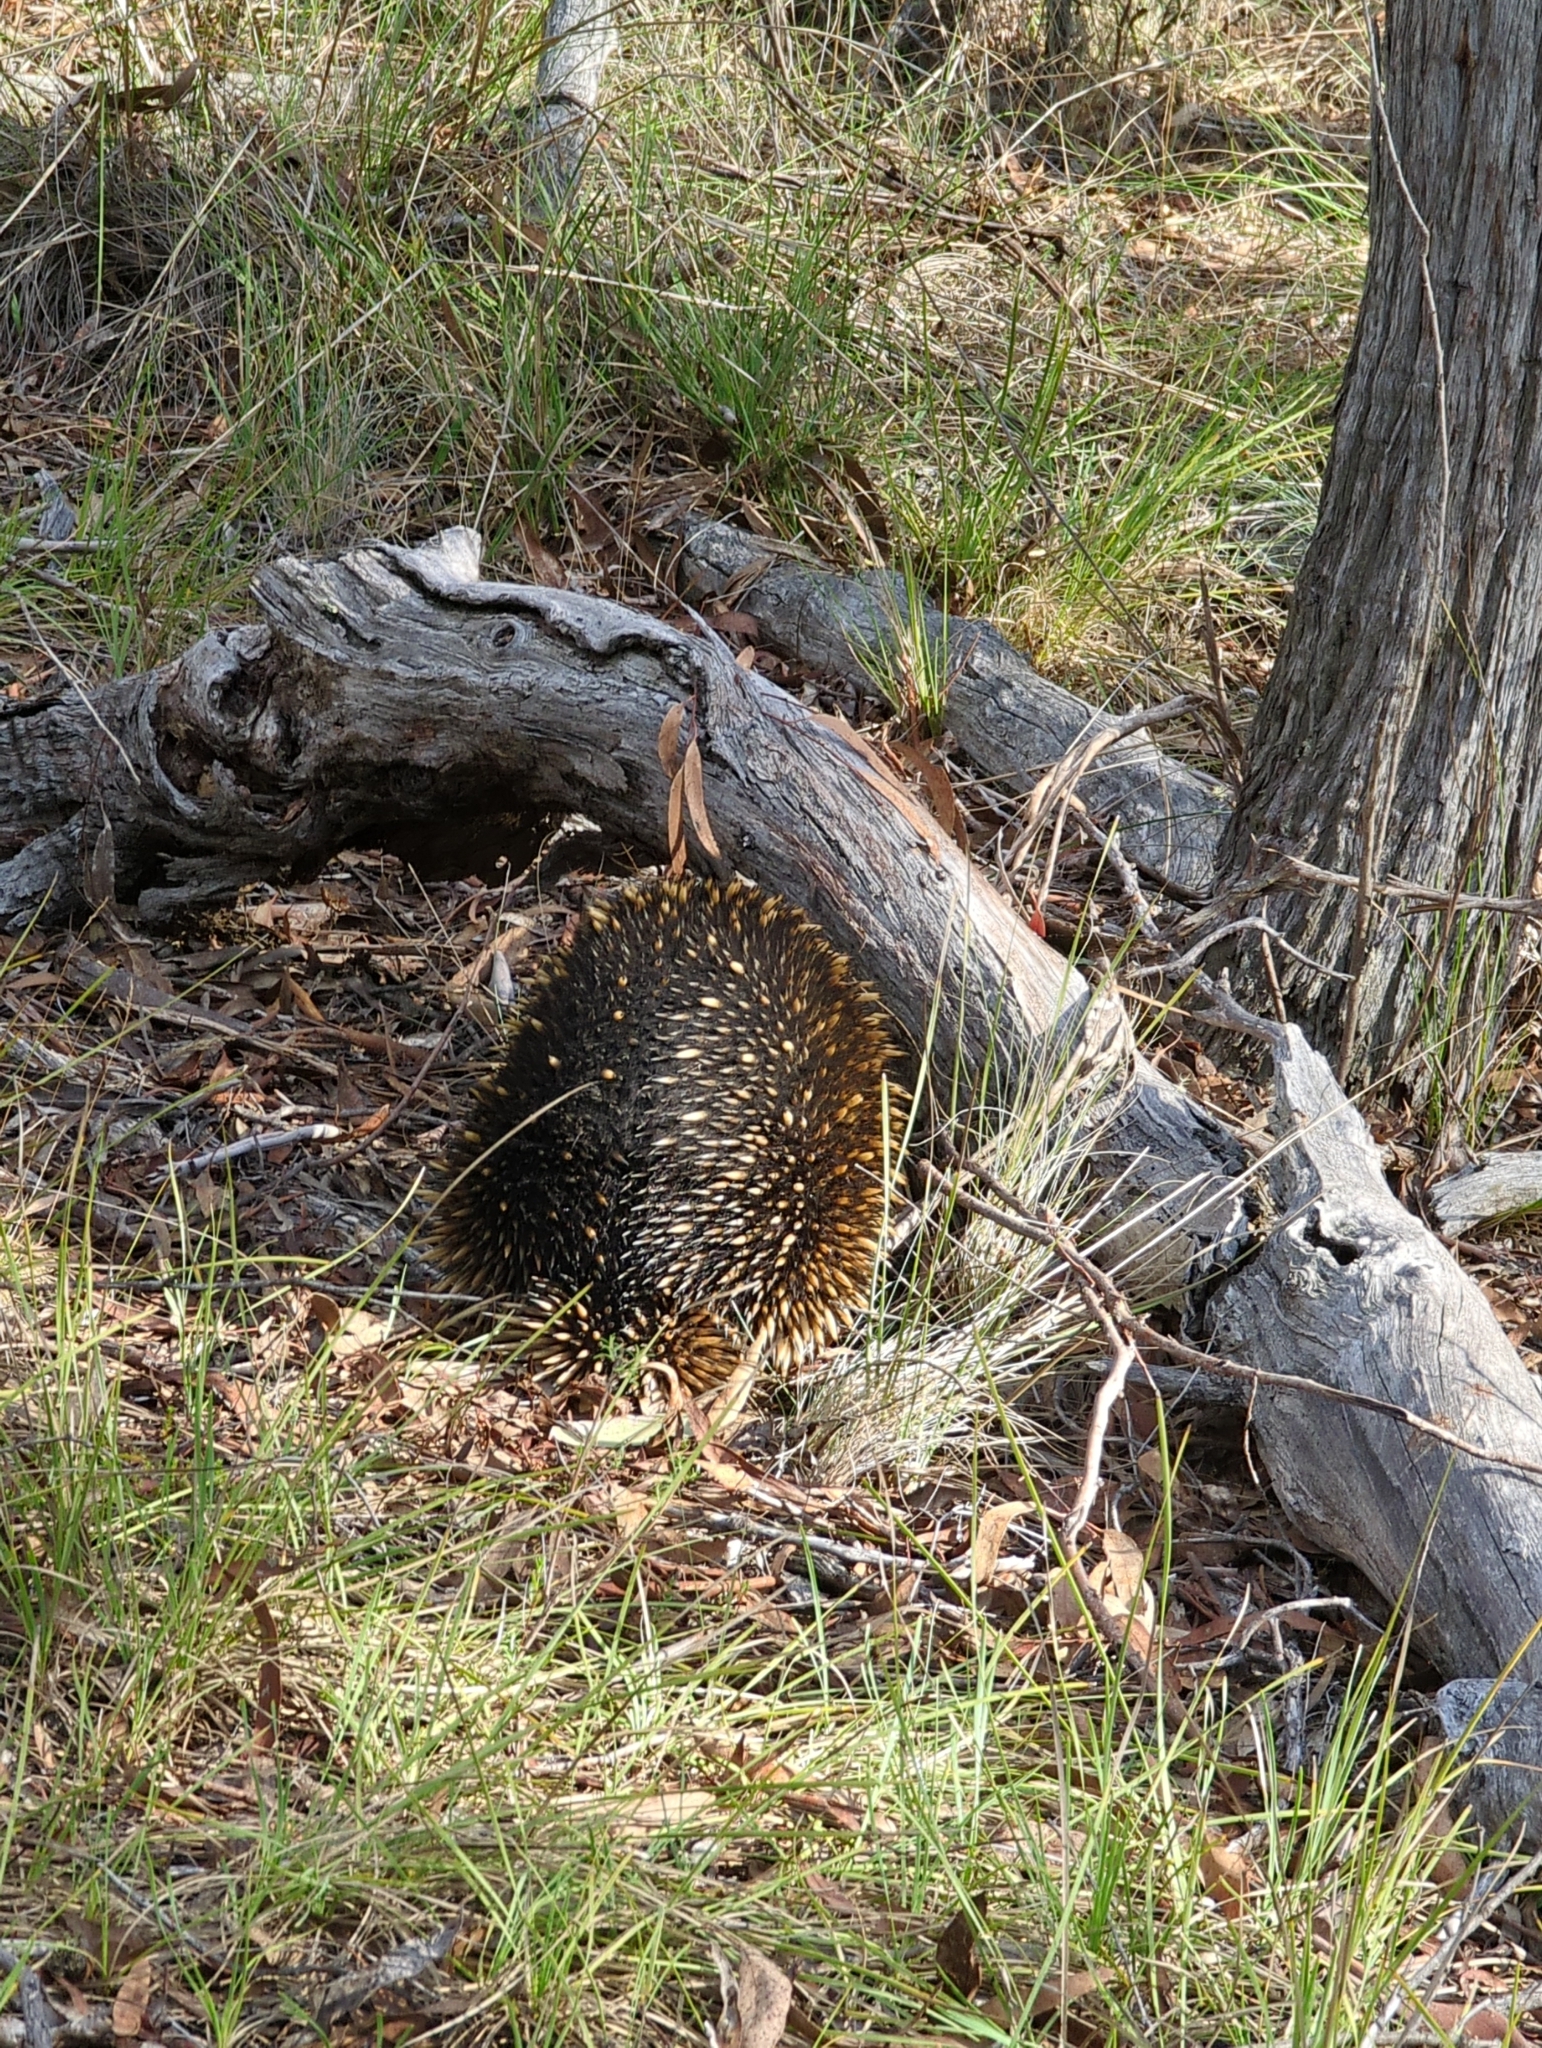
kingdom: Animalia
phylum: Chordata
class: Mammalia
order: Monotremata
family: Tachyglossidae
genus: Tachyglossus
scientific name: Tachyglossus aculeatus
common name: Short-beaked echidna
